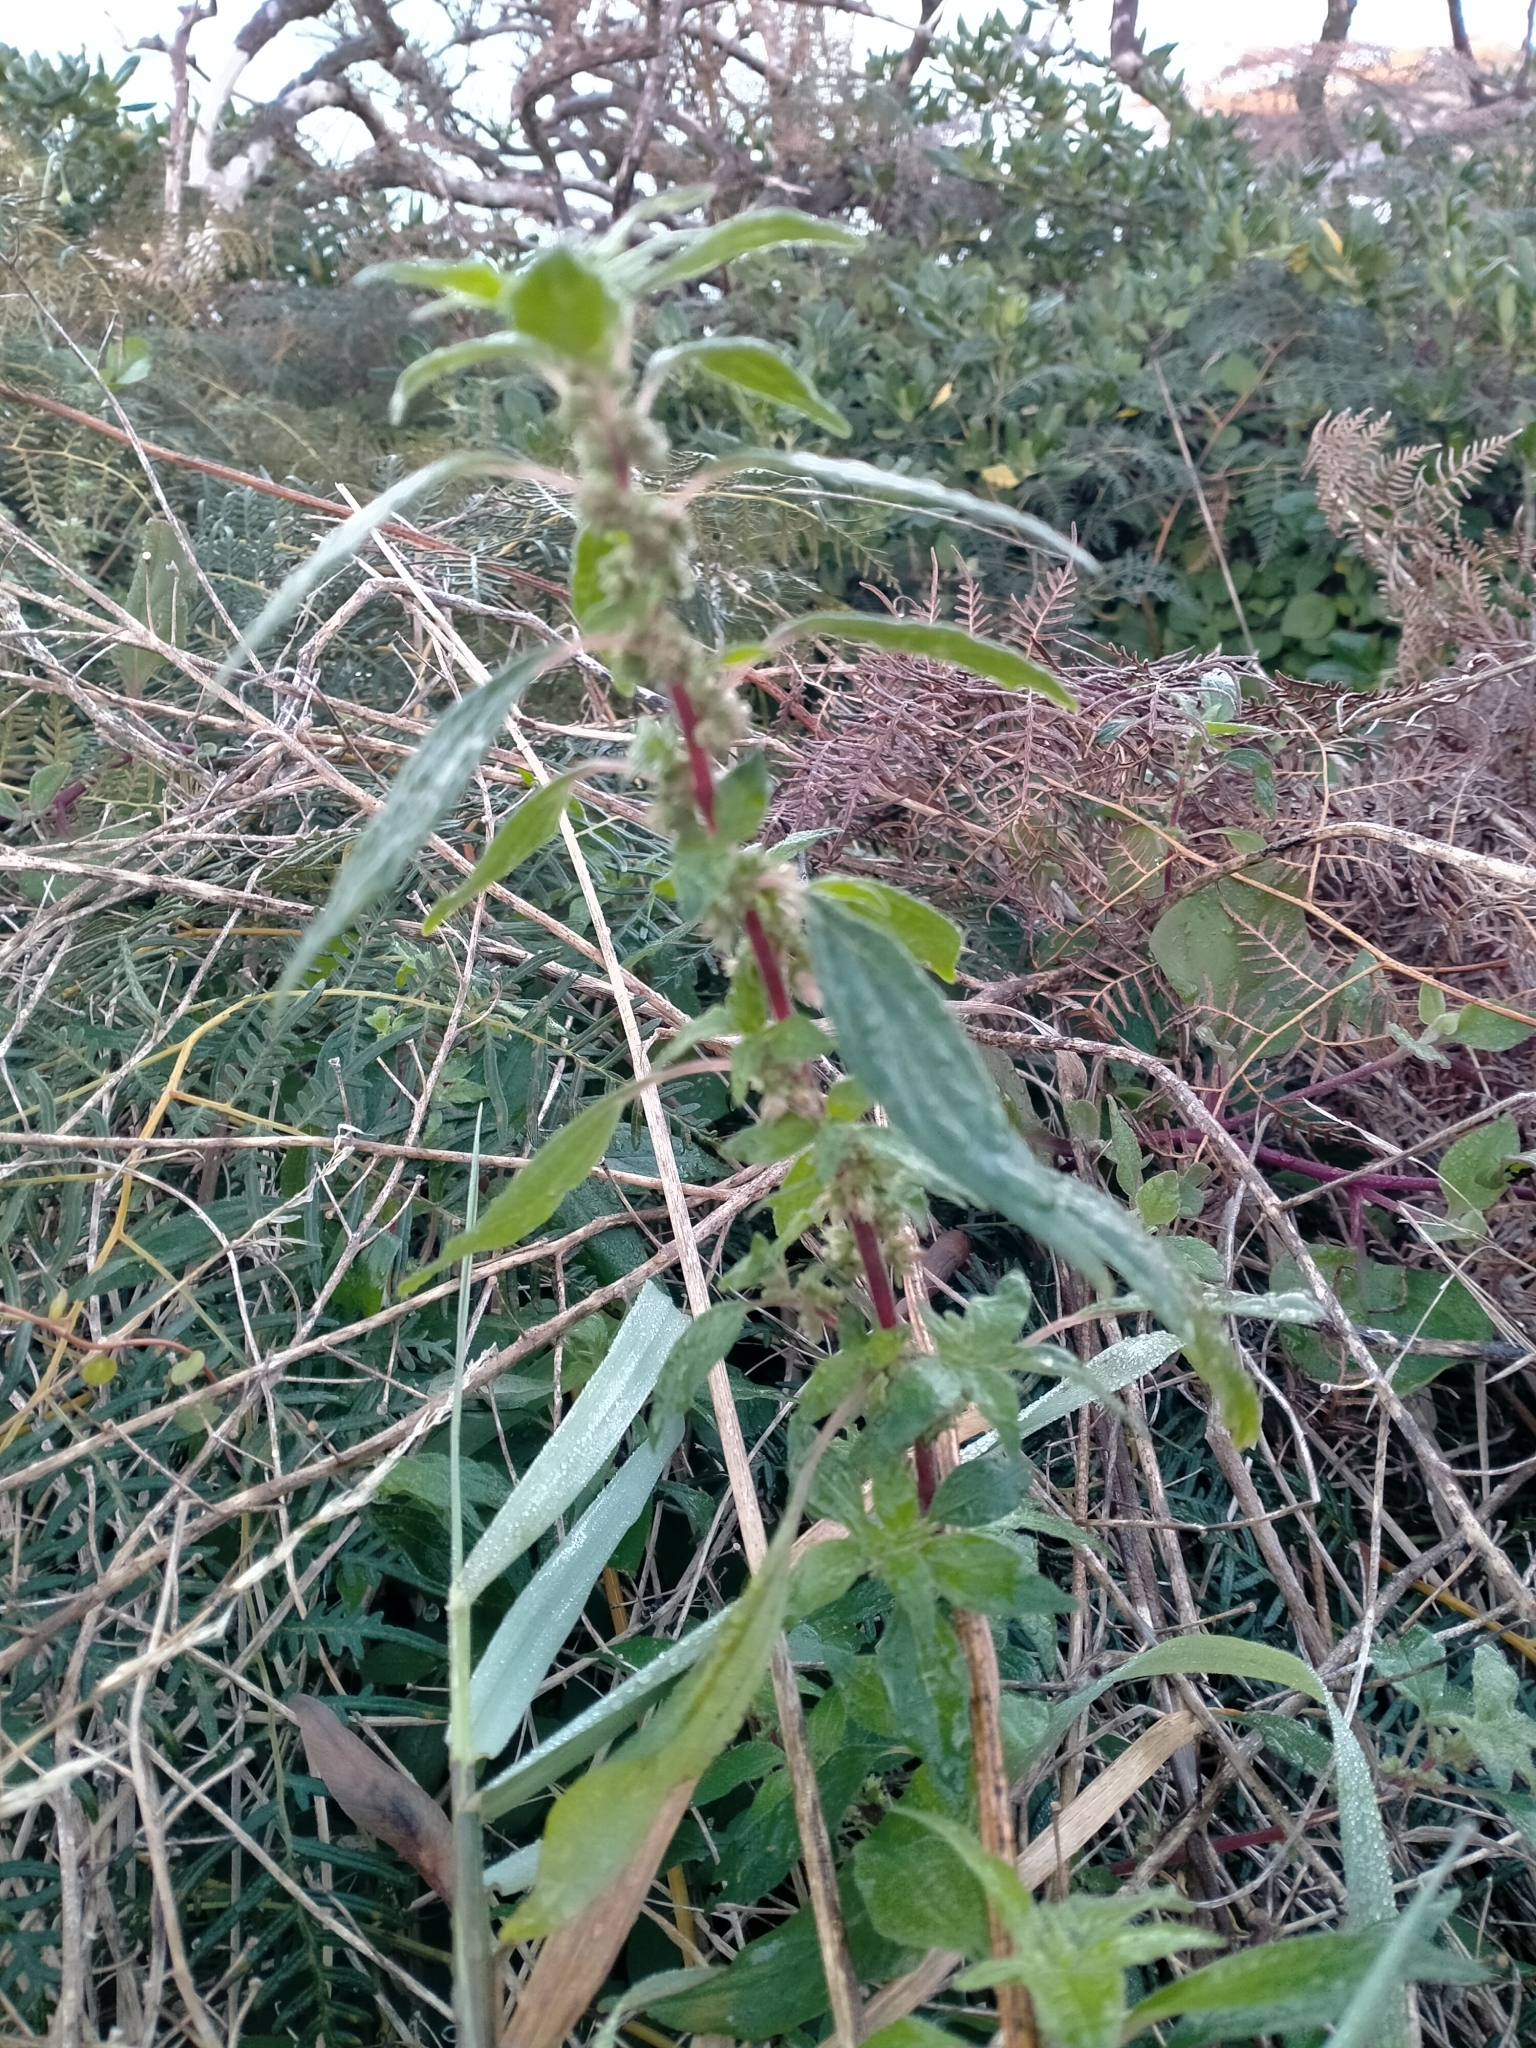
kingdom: Plantae
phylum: Tracheophyta
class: Magnoliopsida
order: Rosales
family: Urticaceae
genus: Parietaria
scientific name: Parietaria judaica
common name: Pellitory-of-the-wall
